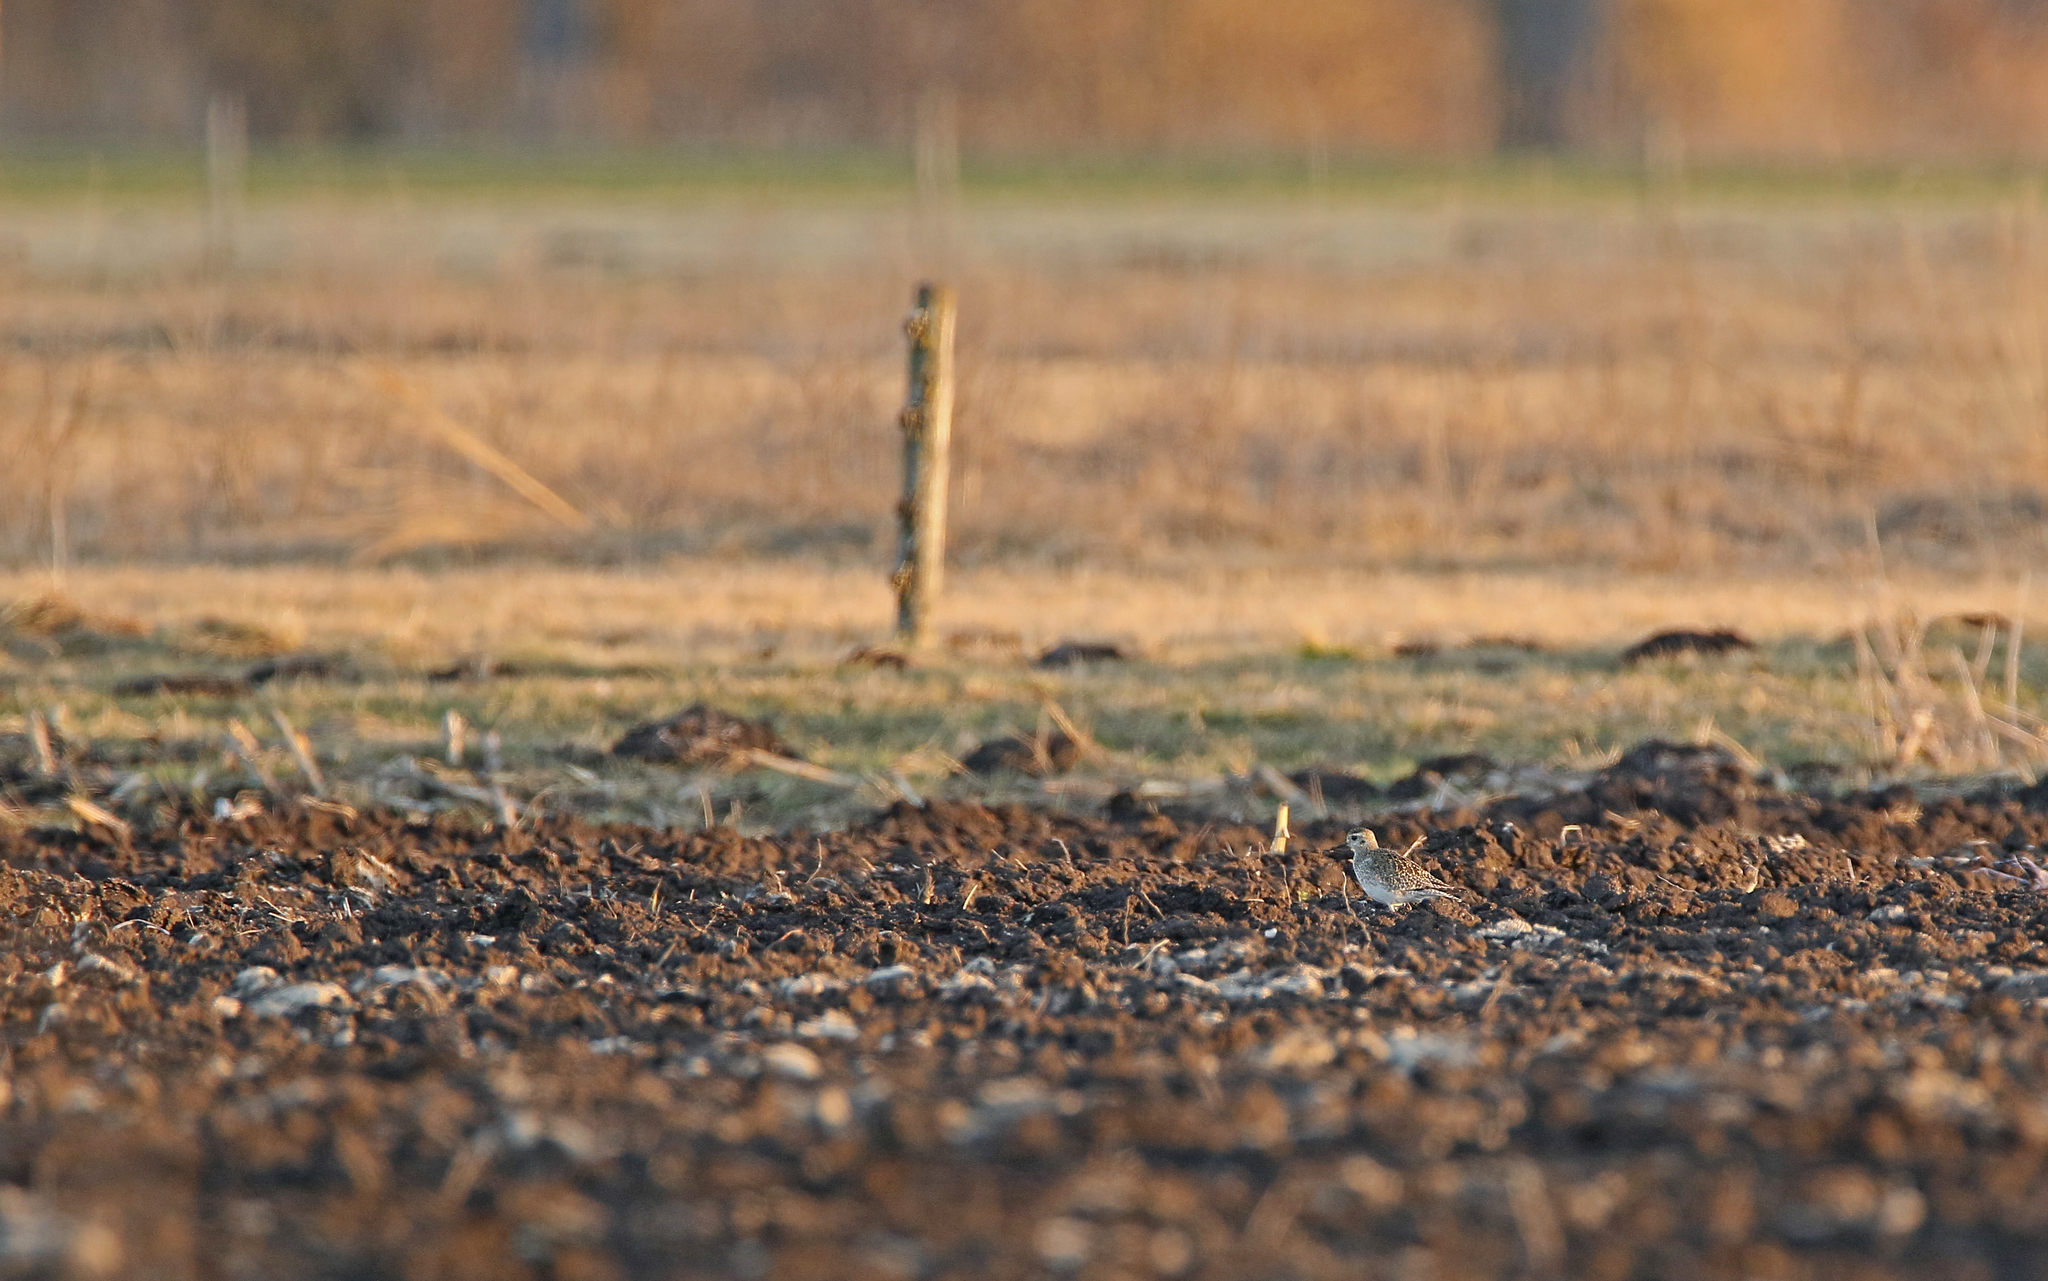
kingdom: Animalia
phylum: Chordata
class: Aves
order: Charadriiformes
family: Charadriidae
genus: Pluvialis
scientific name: Pluvialis apricaria
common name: European golden plover
